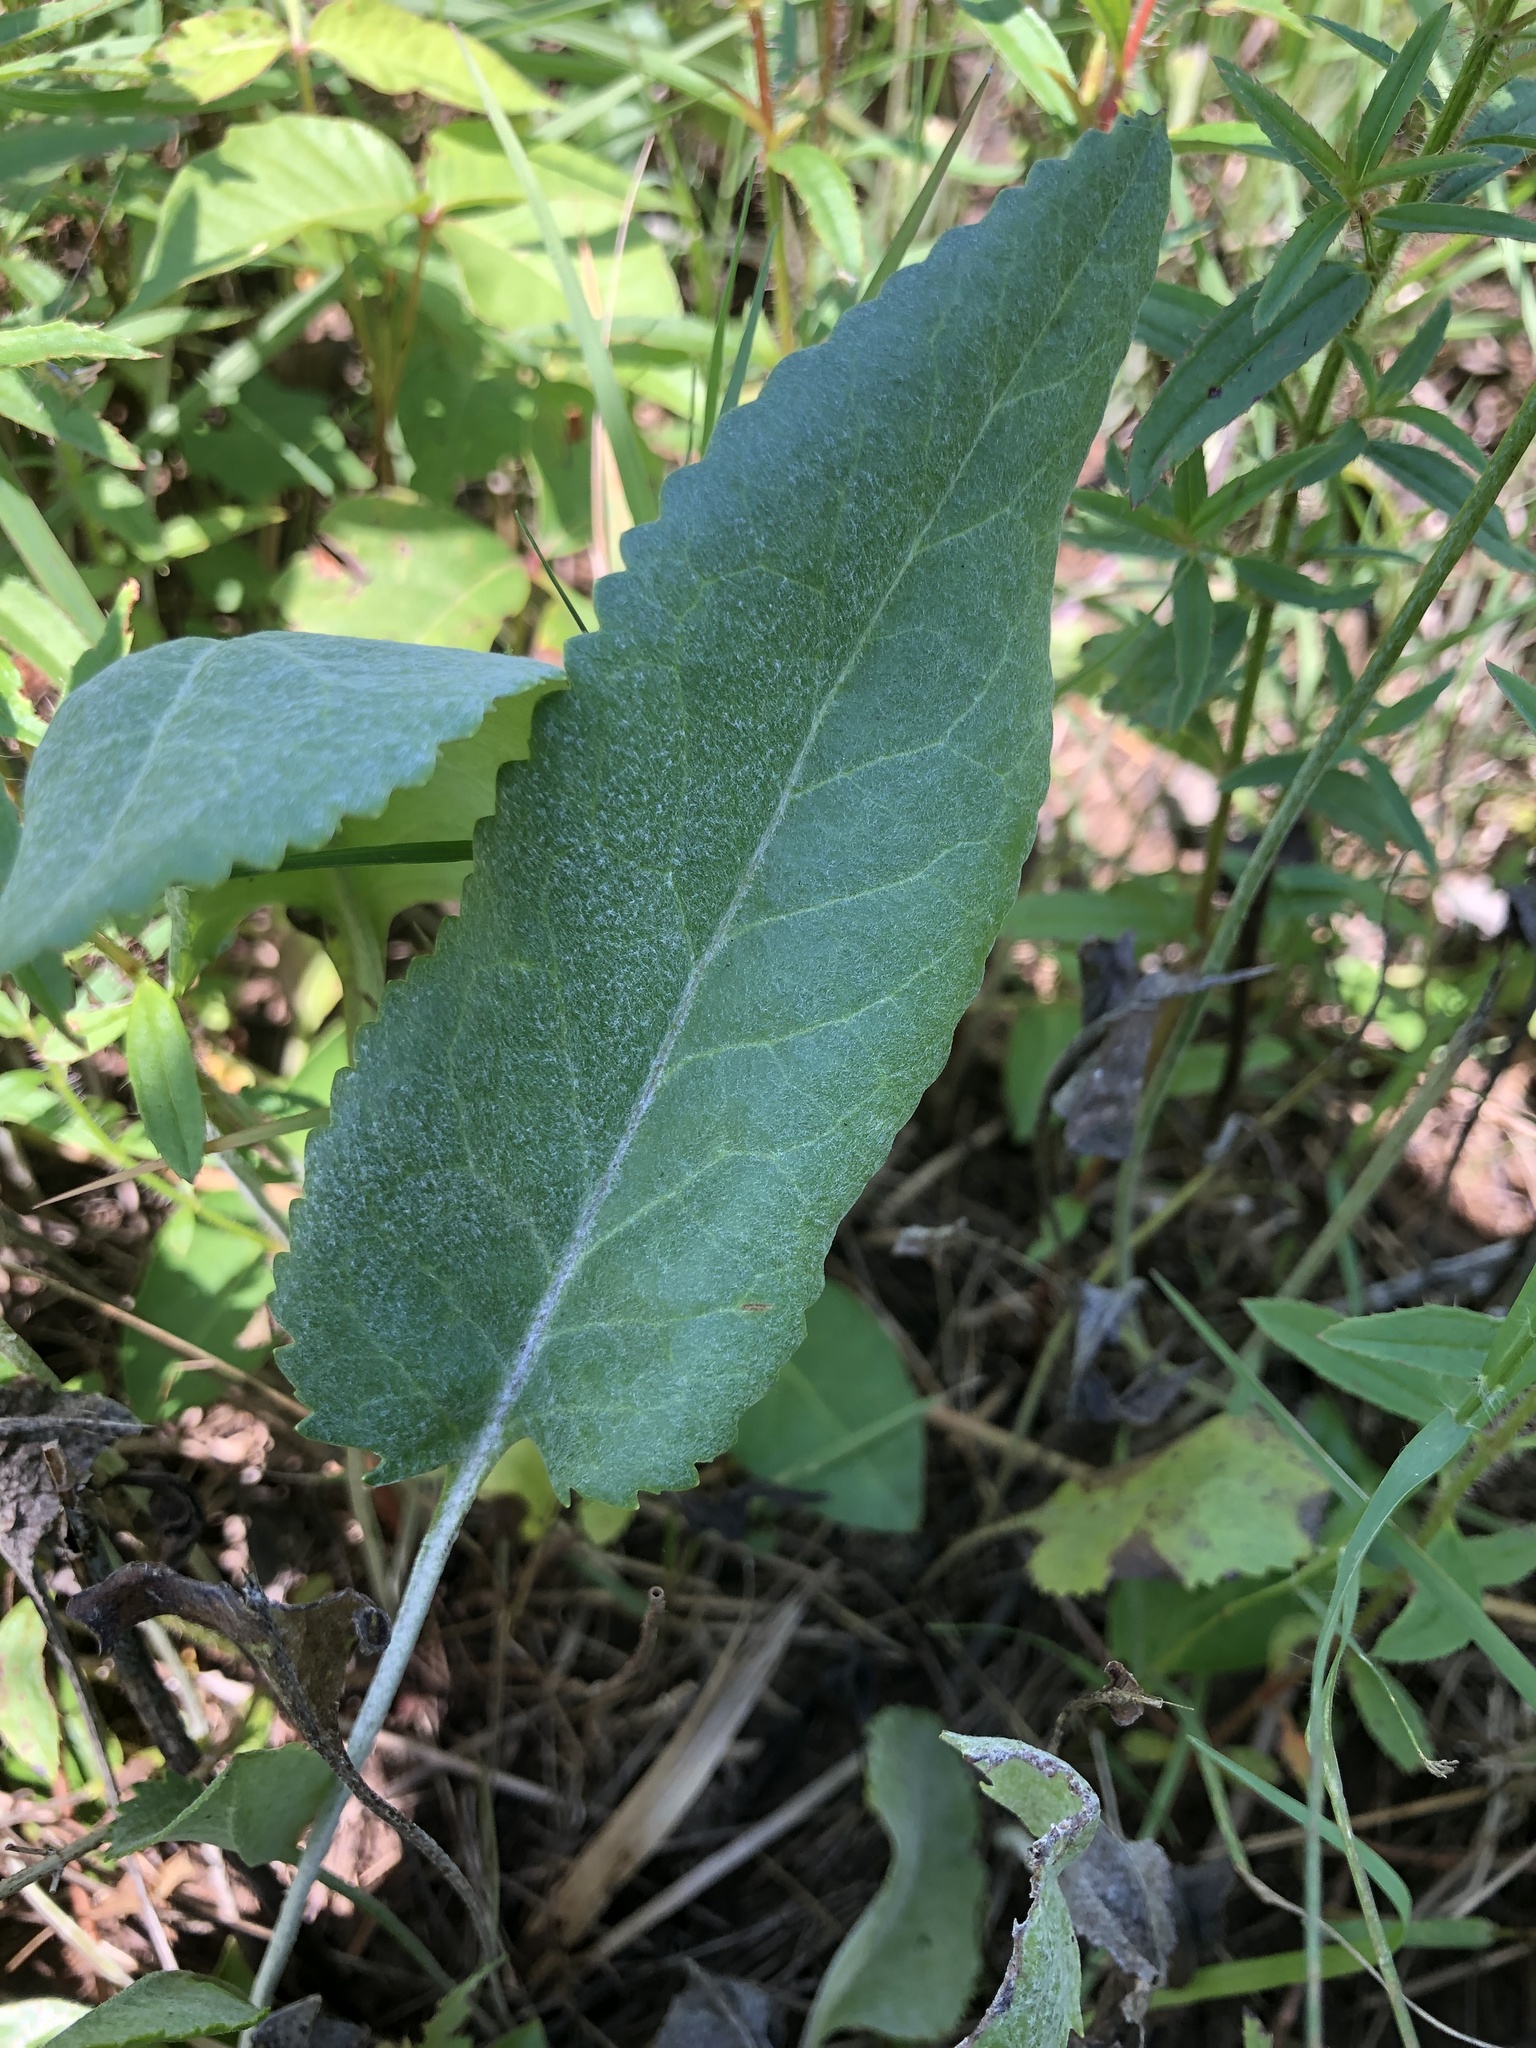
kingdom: Plantae
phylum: Tracheophyta
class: Magnoliopsida
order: Asterales
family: Asteraceae
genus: Packera
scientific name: Packera dubia
